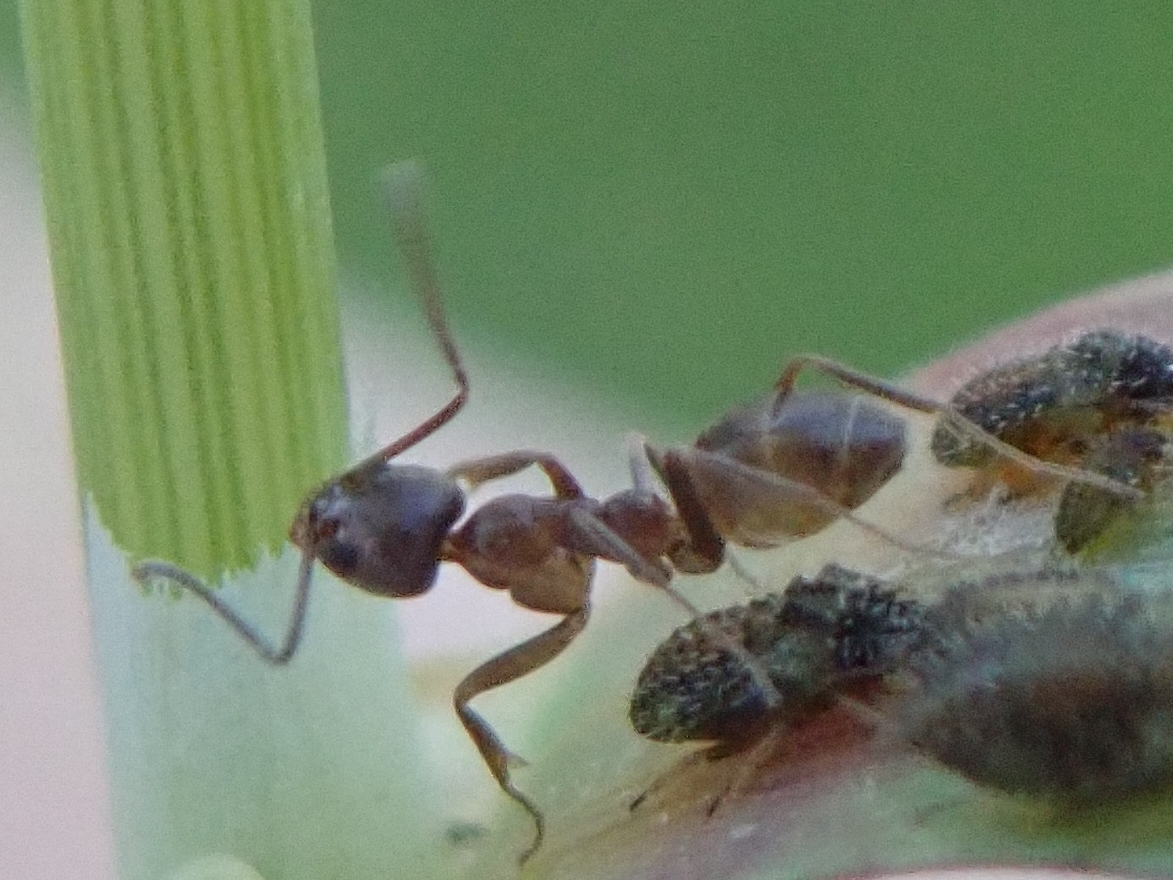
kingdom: Animalia
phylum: Arthropoda
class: Insecta
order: Hymenoptera
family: Formicidae
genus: Linepithema
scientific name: Linepithema humile
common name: Argentine ant
